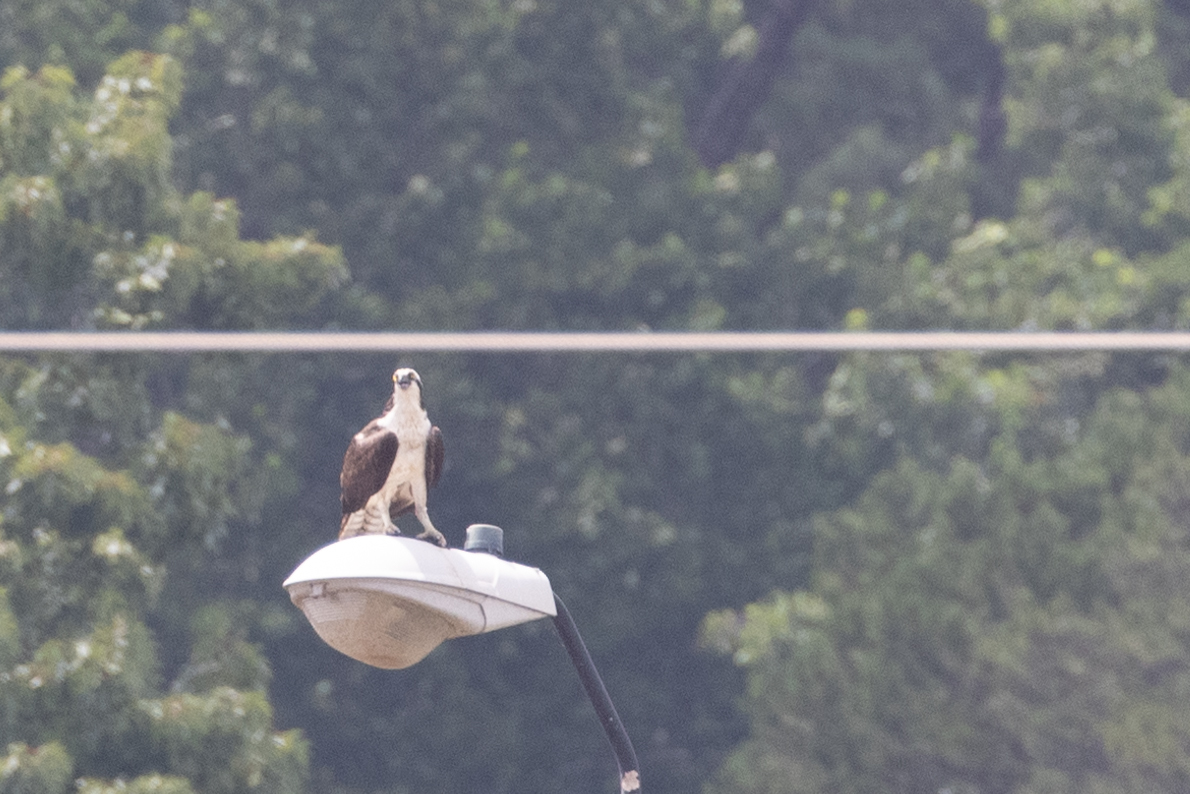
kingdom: Animalia
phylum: Chordata
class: Aves
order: Accipitriformes
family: Pandionidae
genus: Pandion
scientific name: Pandion haliaetus
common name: Osprey
